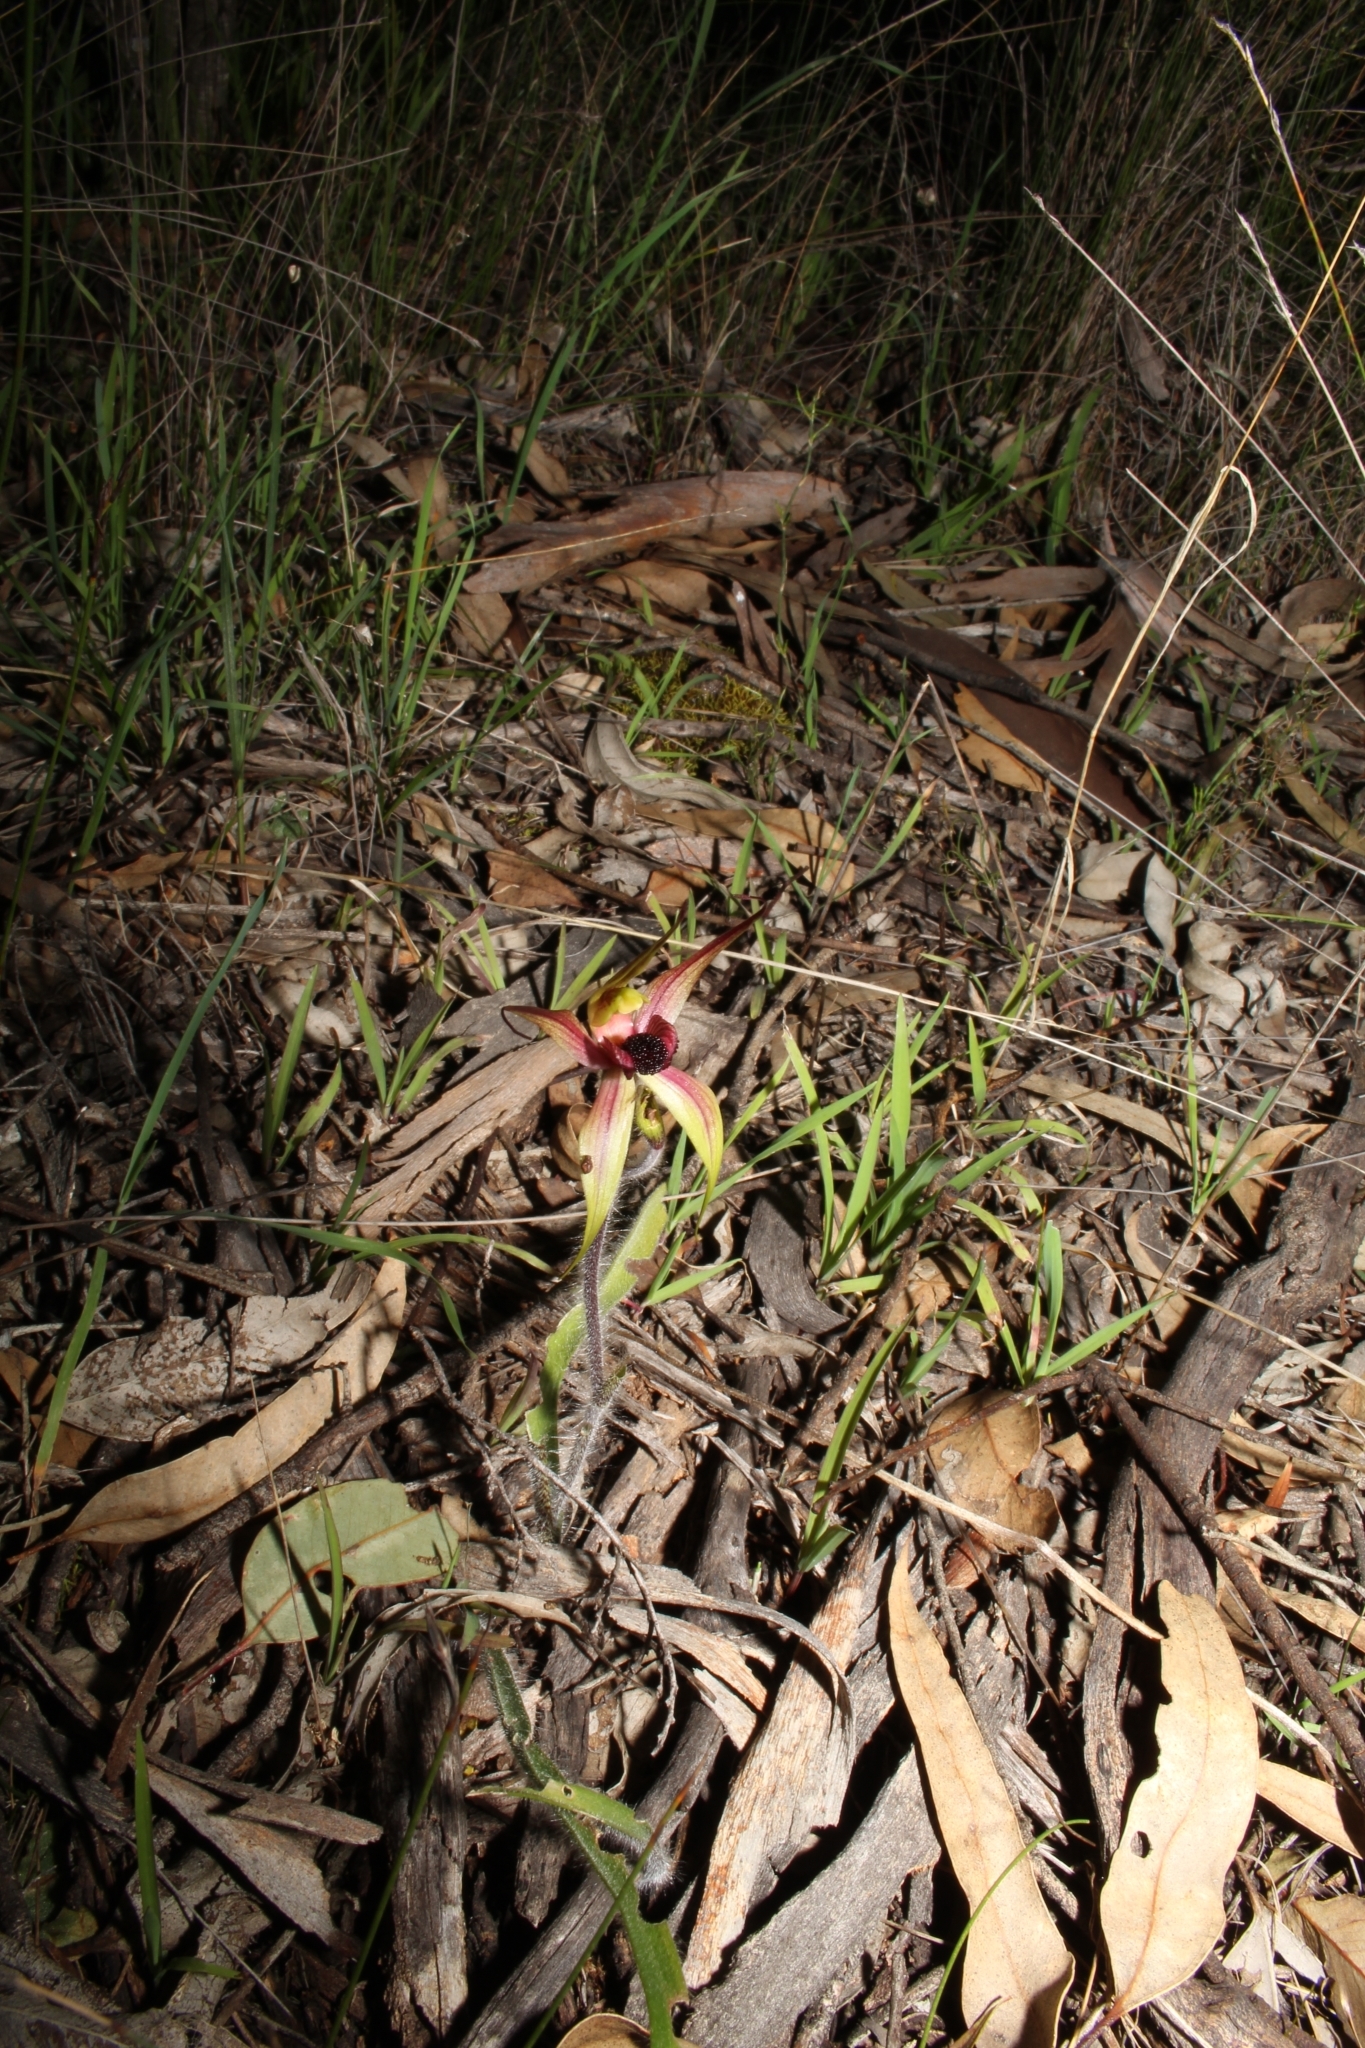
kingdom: Plantae
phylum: Tracheophyta
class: Liliopsida
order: Asparagales
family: Orchidaceae
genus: Caladenia
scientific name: Caladenia macrostylis
